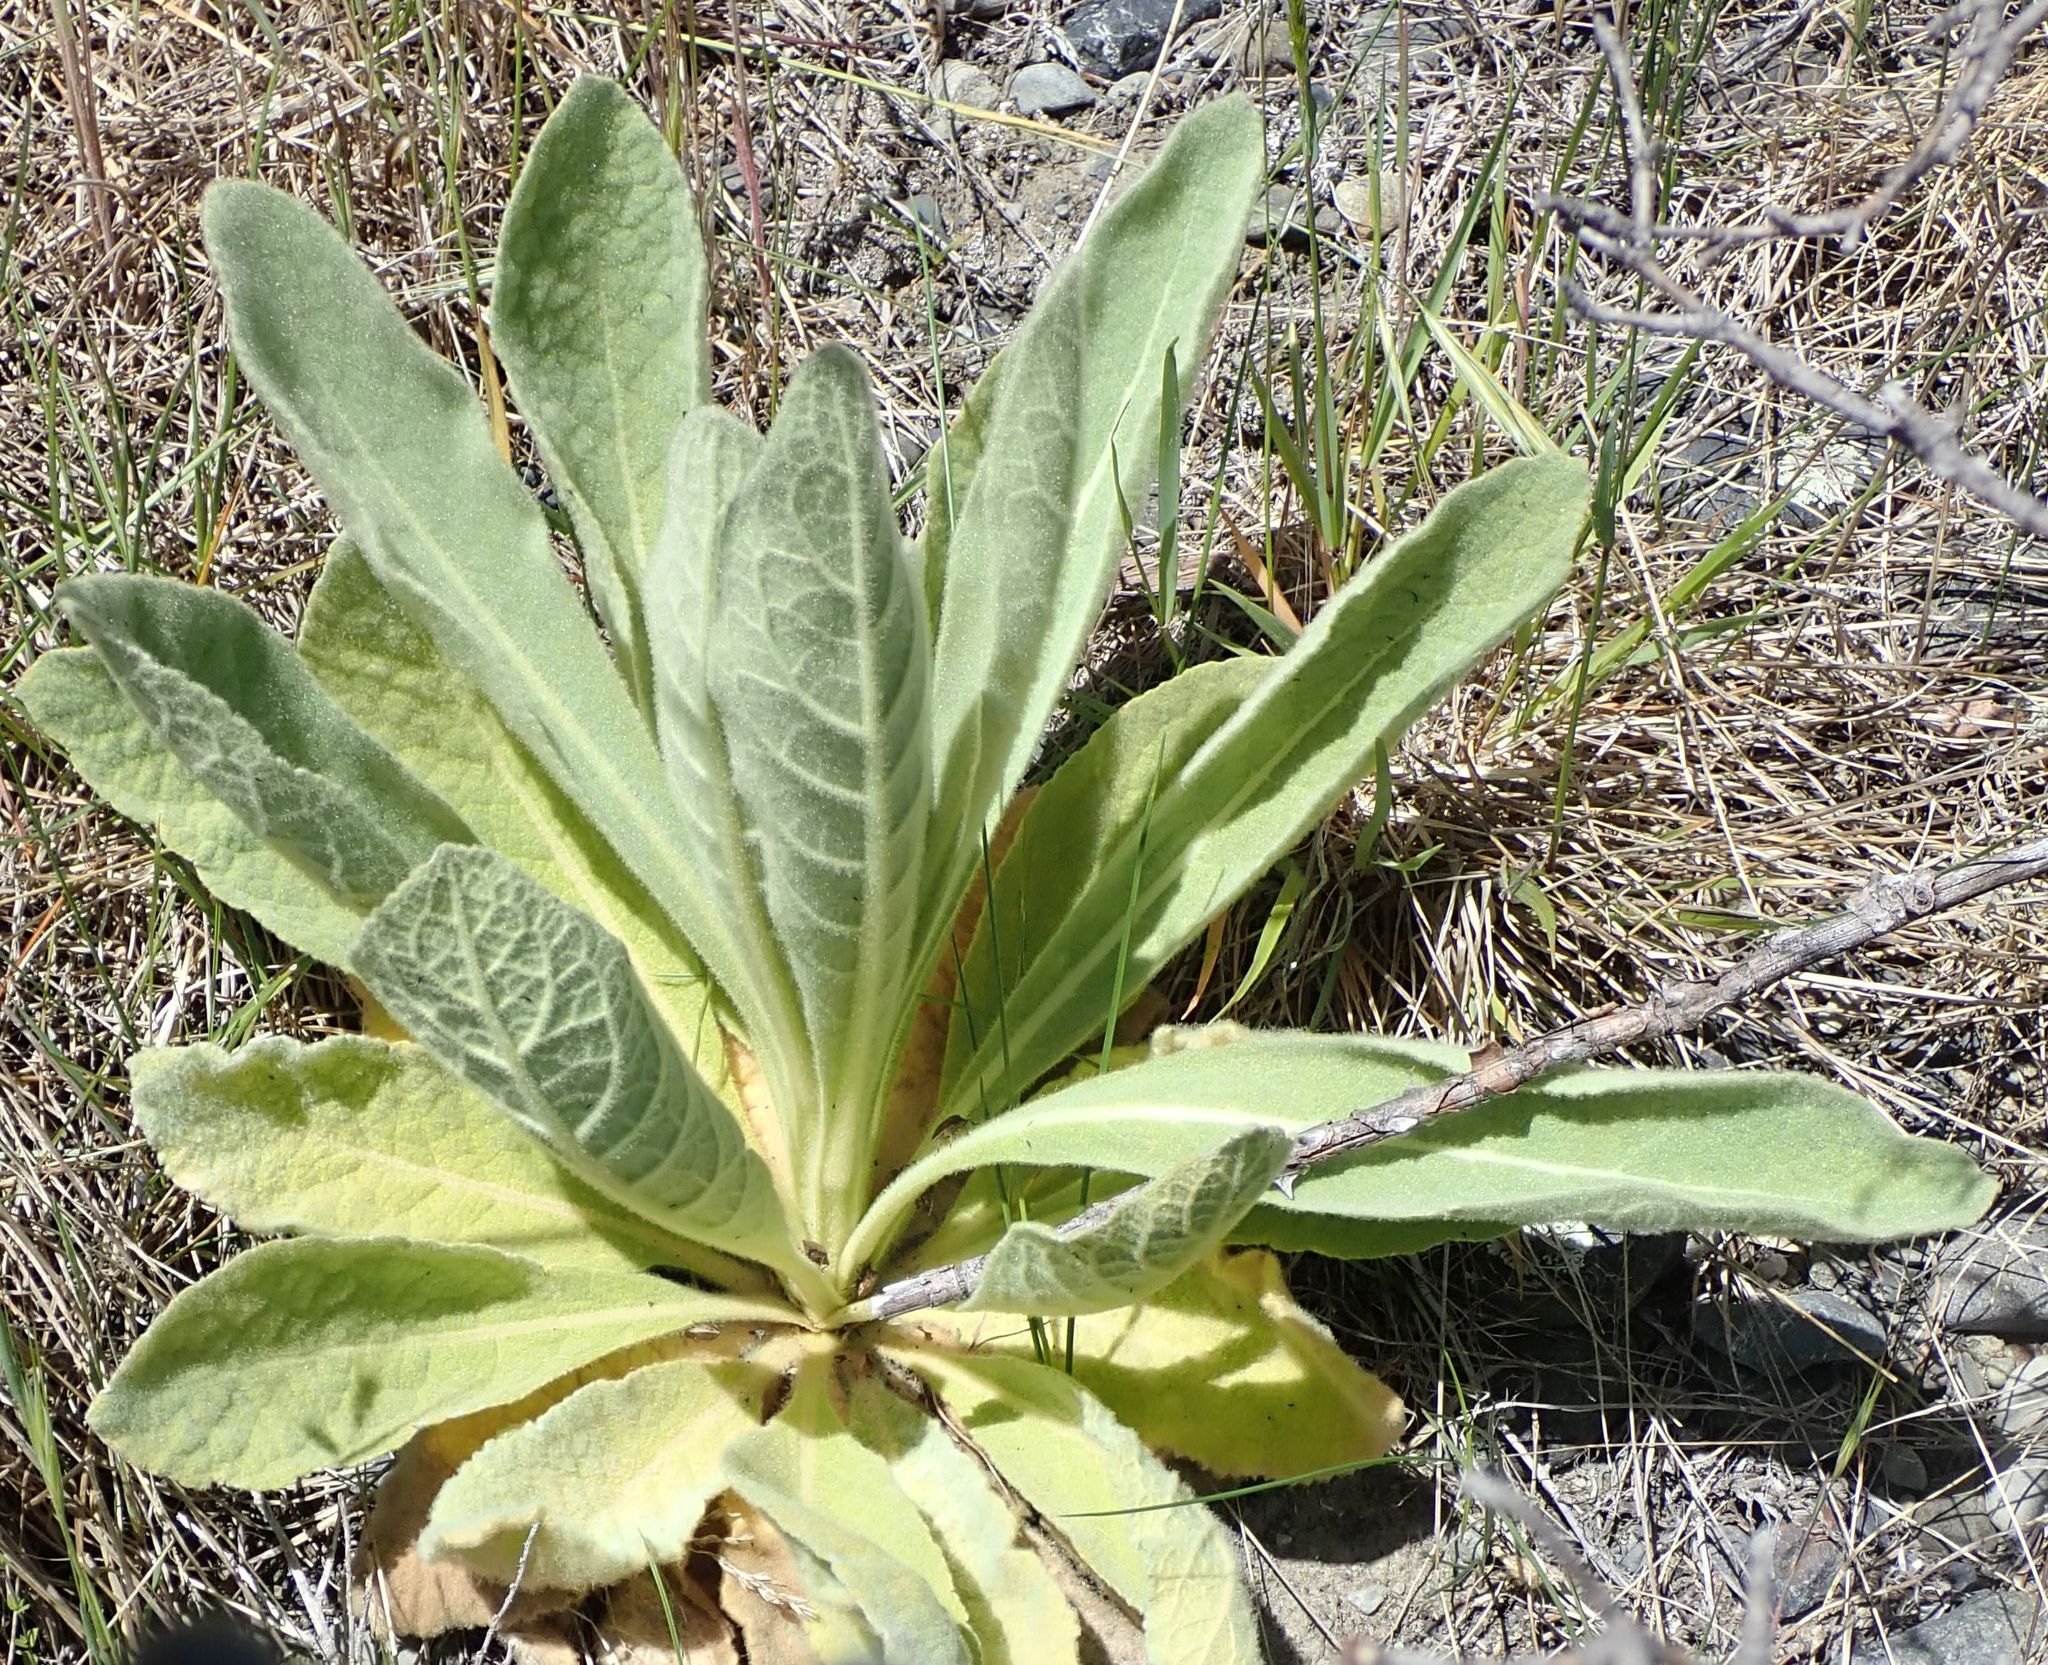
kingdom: Plantae
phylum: Tracheophyta
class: Magnoliopsida
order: Lamiales
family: Scrophulariaceae
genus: Verbascum
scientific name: Verbascum thapsus
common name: Common mullein
